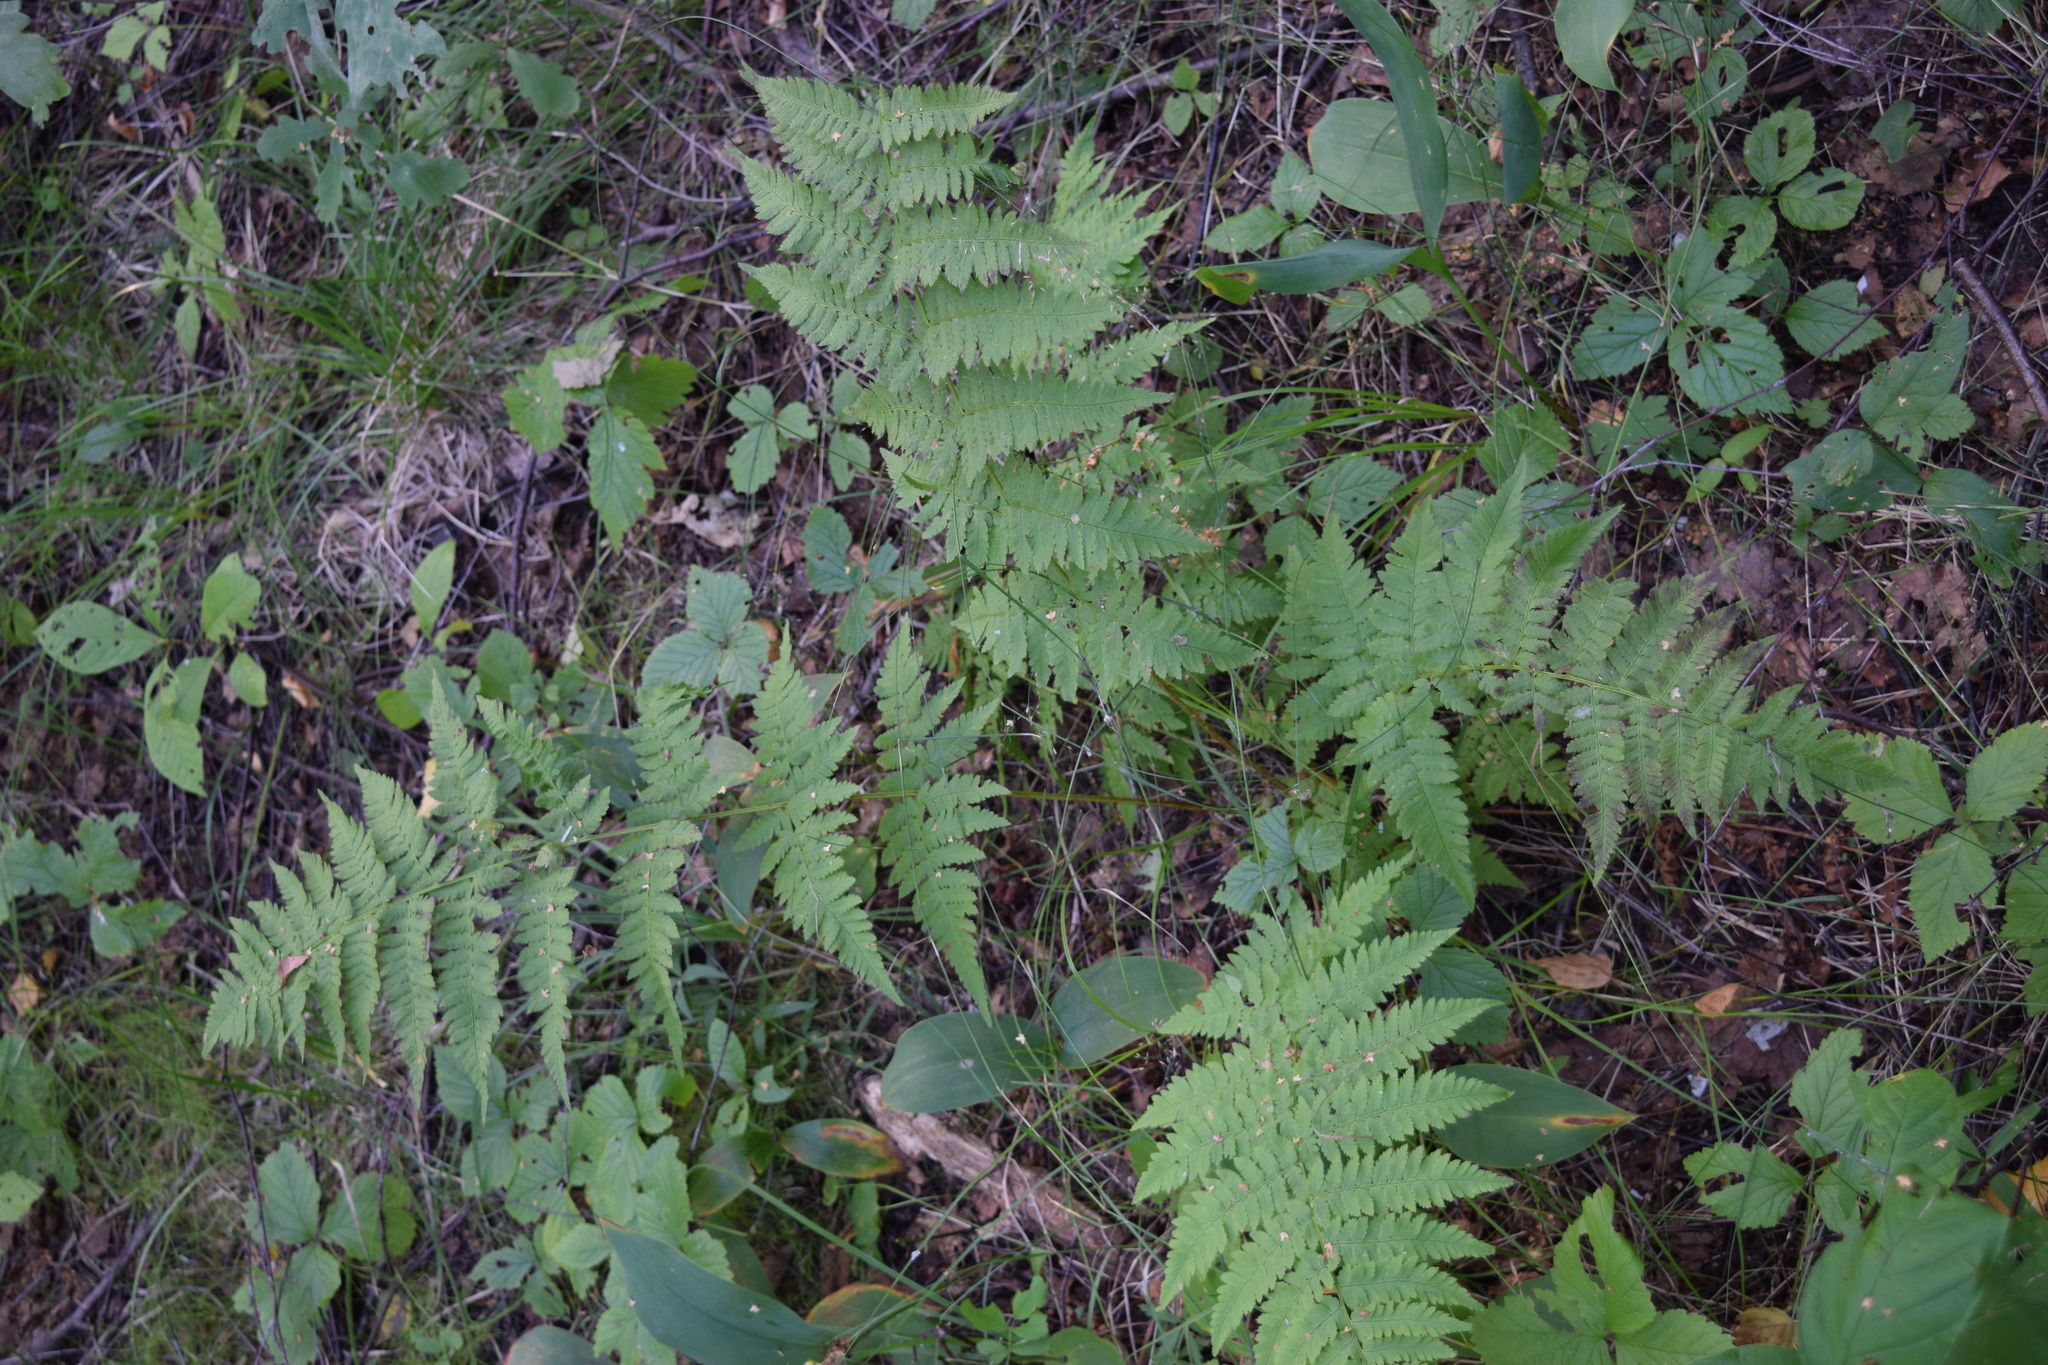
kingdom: Plantae
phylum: Tracheophyta
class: Polypodiopsida
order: Polypodiales
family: Dryopteridaceae
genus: Dryopteris
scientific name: Dryopteris carthusiana
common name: Narrow buckler-fern
